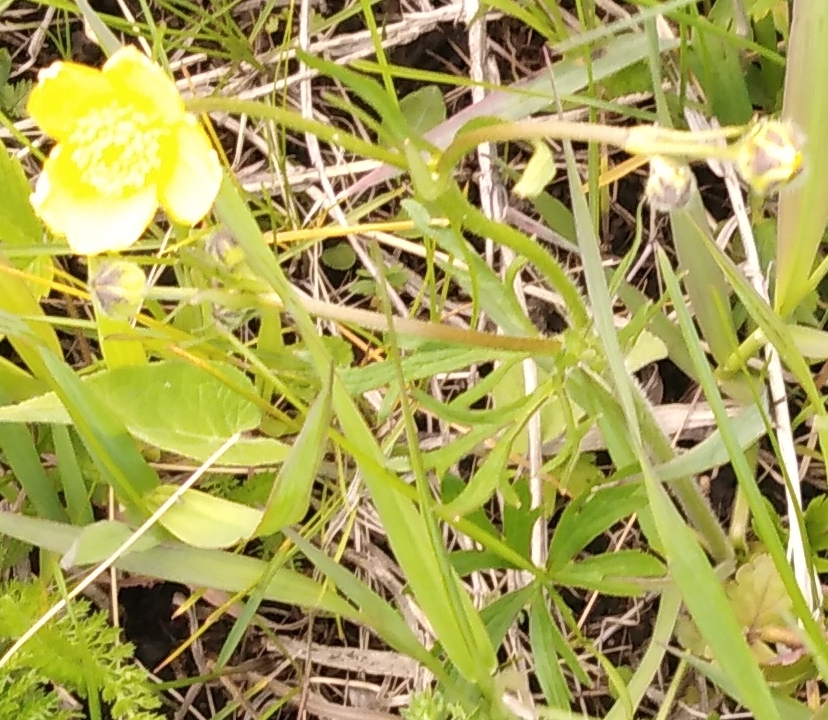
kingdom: Plantae
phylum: Tracheophyta
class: Magnoliopsida
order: Ranunculales
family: Ranunculaceae
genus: Ranunculus
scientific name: Ranunculus polyanthemos
